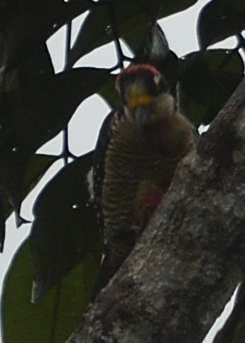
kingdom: Animalia
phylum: Chordata
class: Aves
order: Piciformes
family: Picidae
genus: Melanerpes
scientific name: Melanerpes pucherani
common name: Black-cheeked woodpecker
